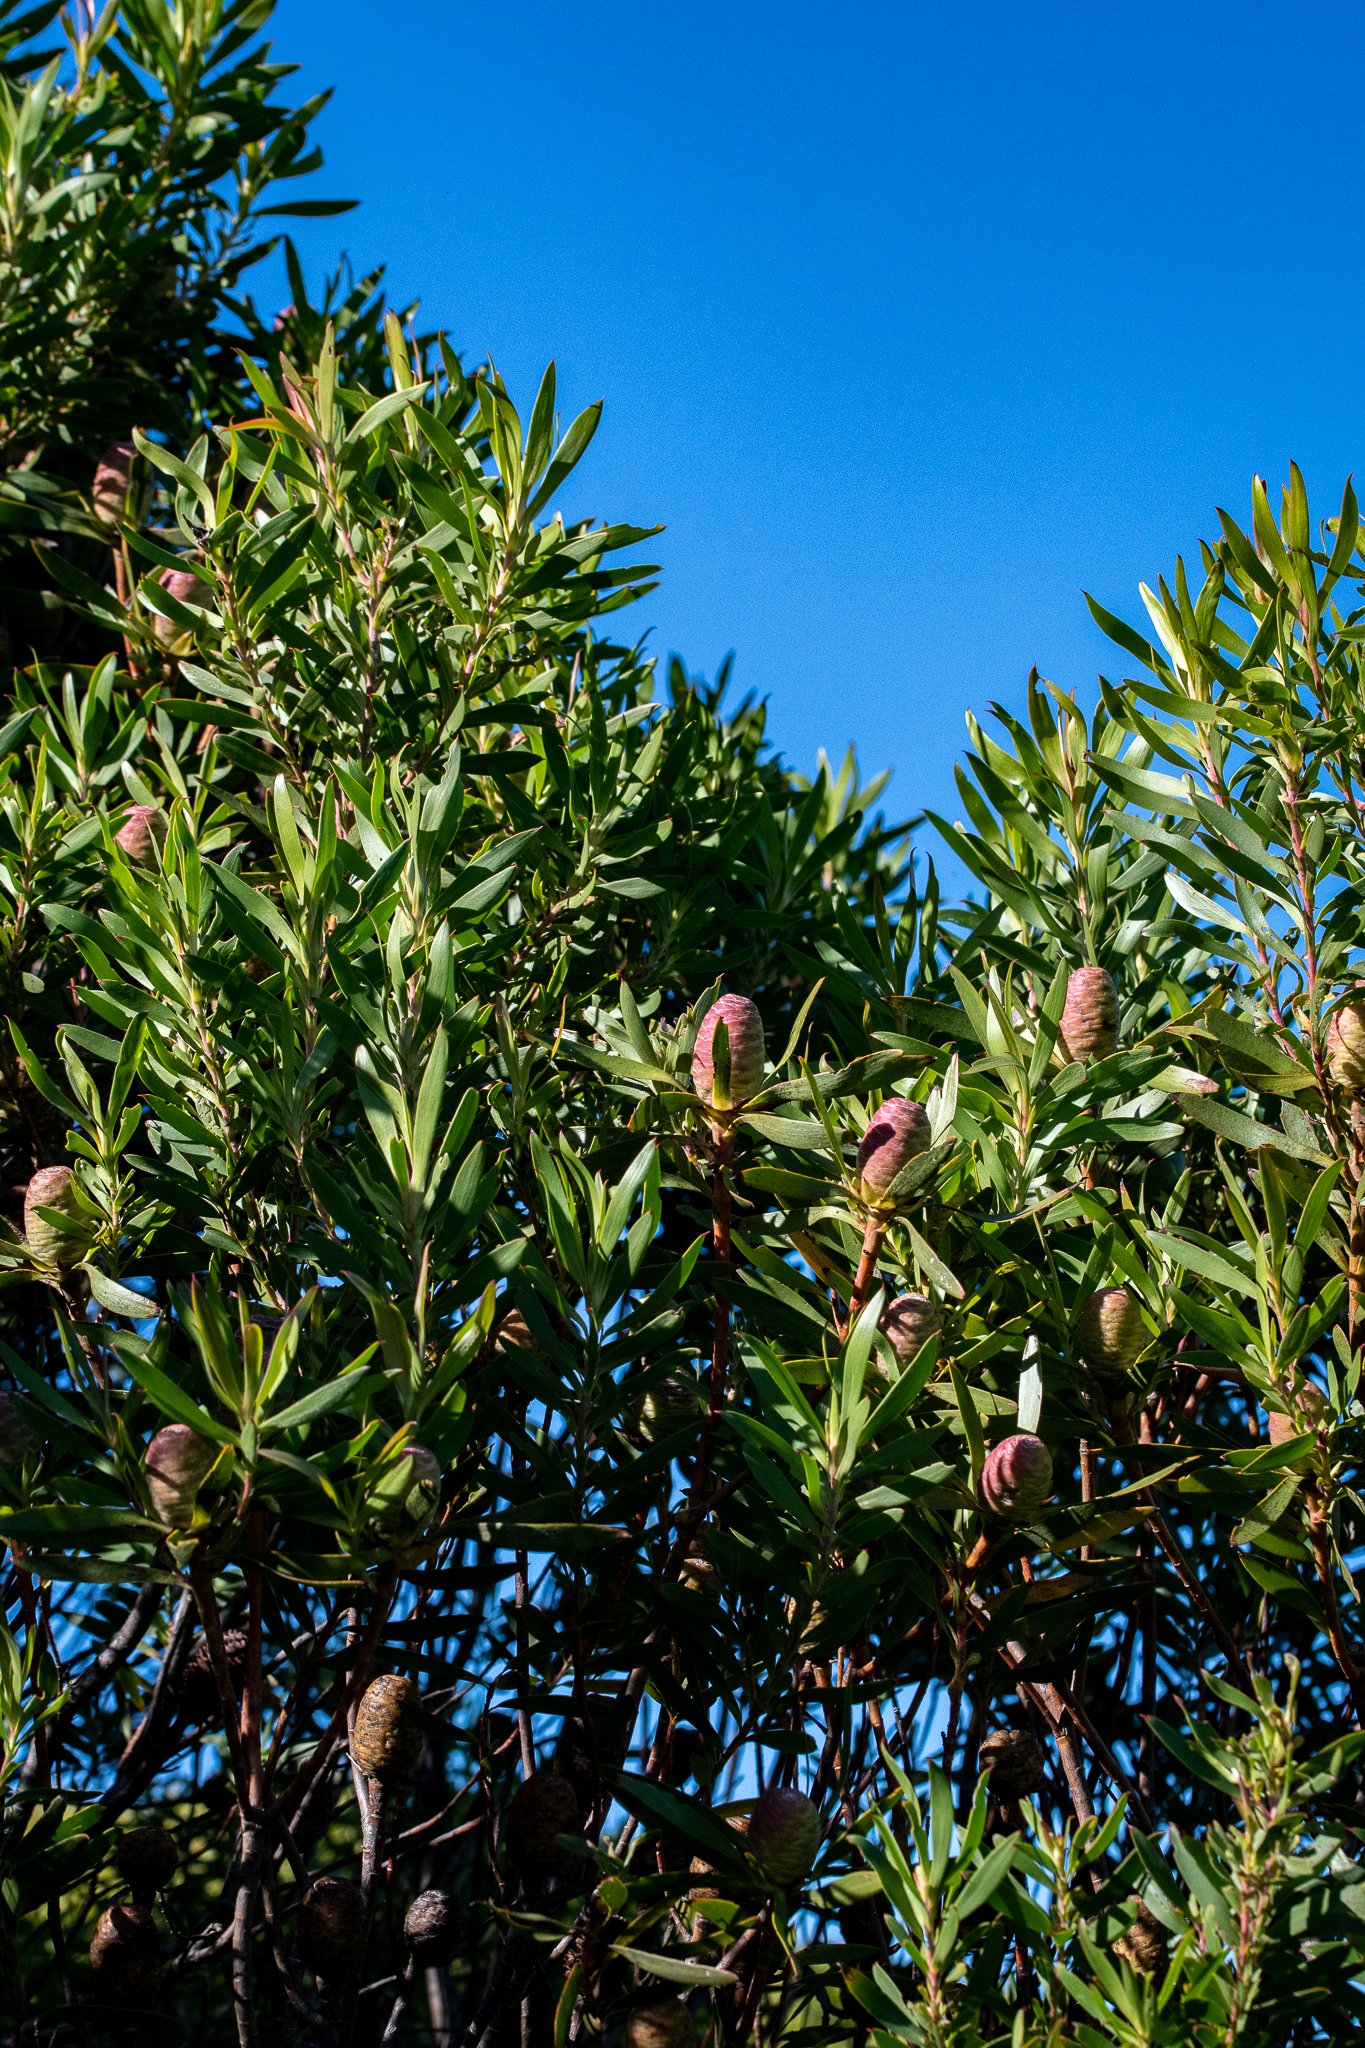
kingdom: Plantae
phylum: Tracheophyta
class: Magnoliopsida
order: Proteales
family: Proteaceae
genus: Leucadendron
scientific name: Leucadendron coniferum
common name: Dune conebush
